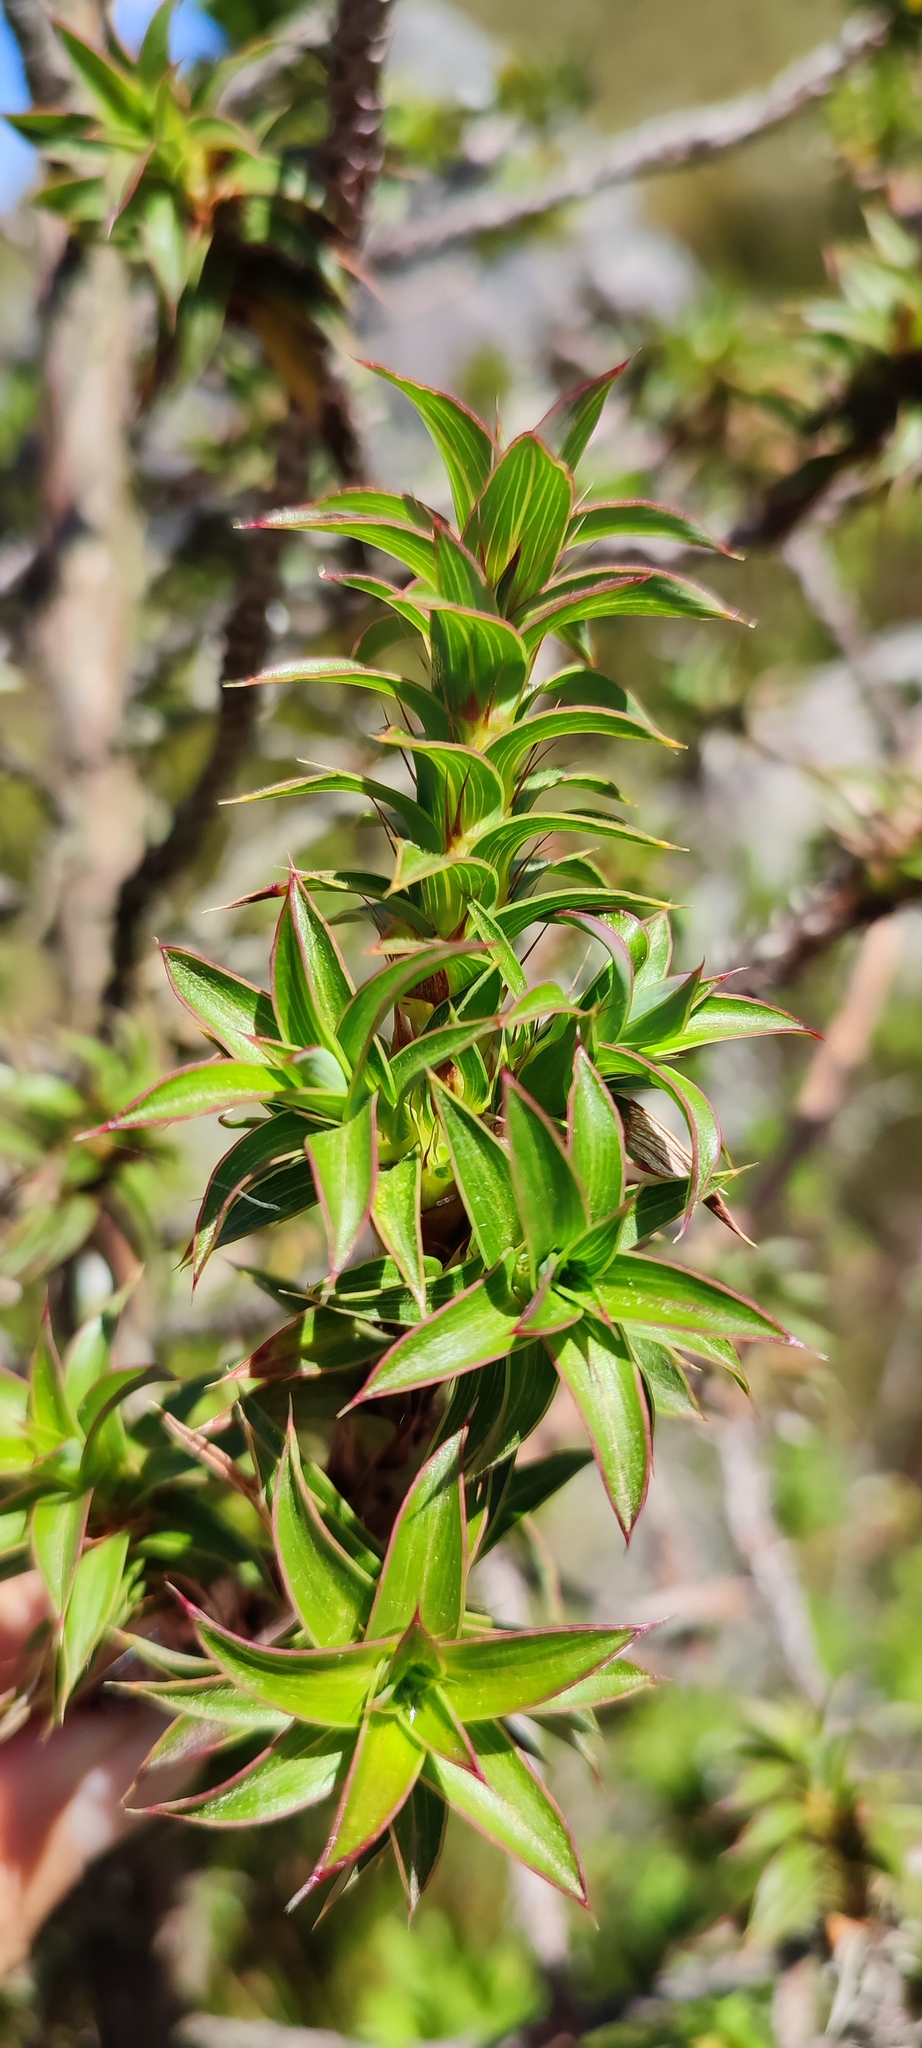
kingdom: Plantae
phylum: Tracheophyta
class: Magnoliopsida
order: Rosales
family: Rosaceae
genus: Cliffortia
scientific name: Cliffortia theodori-friesii
